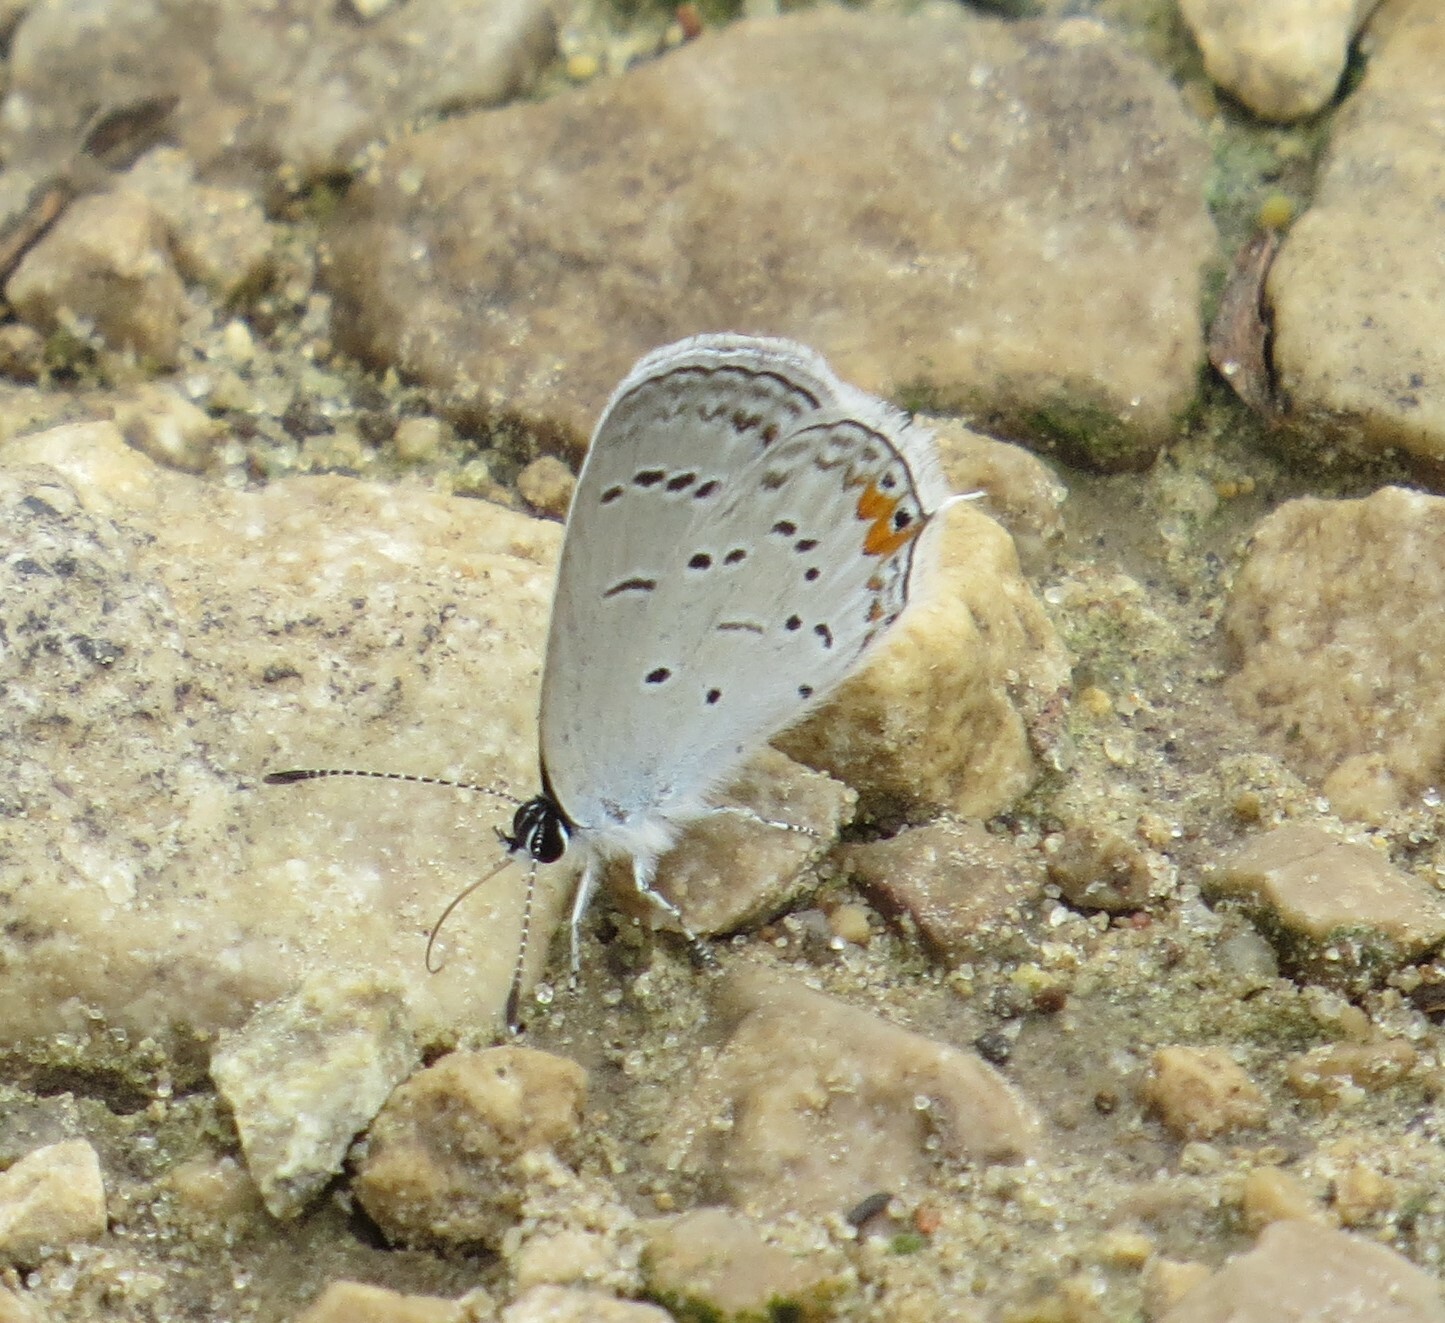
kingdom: Animalia
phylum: Arthropoda
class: Insecta
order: Lepidoptera
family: Lycaenidae
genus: Elkalyce
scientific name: Elkalyce comyntas
